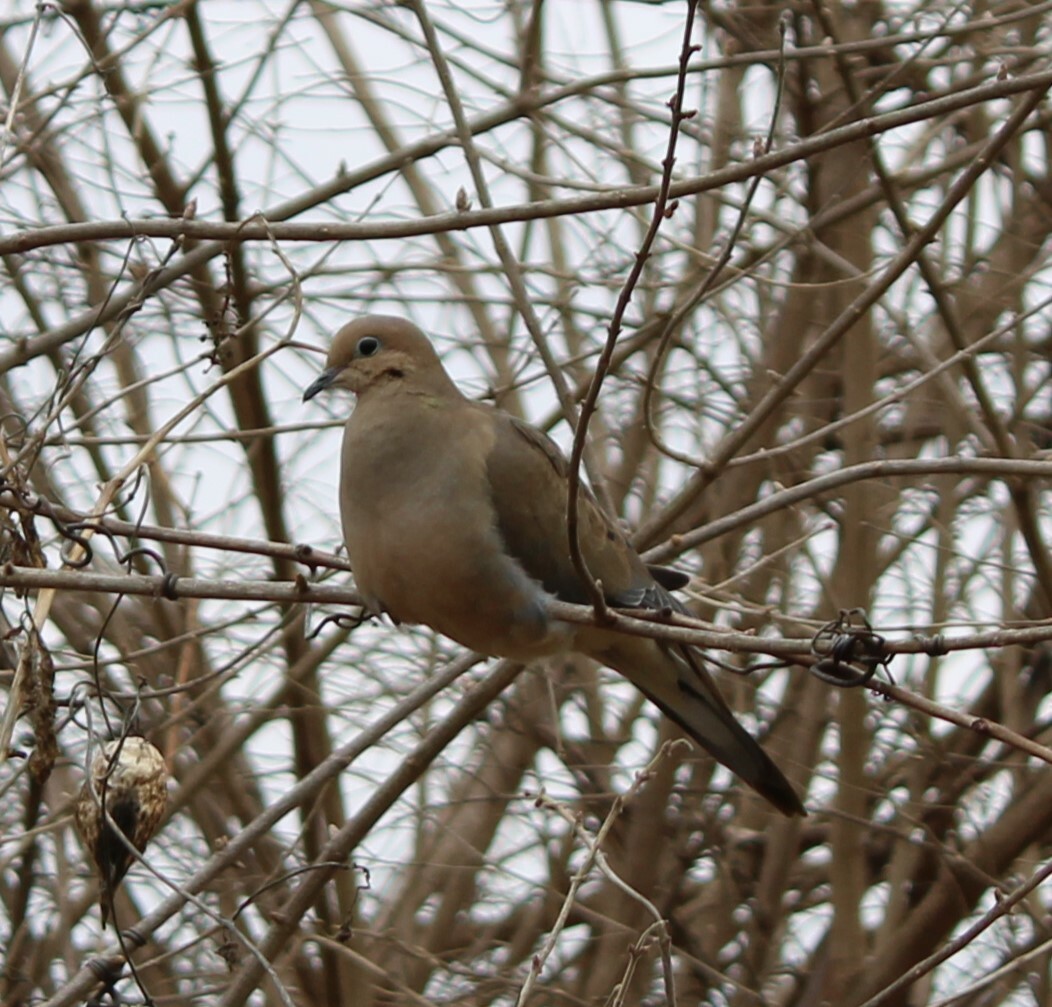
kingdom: Animalia
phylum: Chordata
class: Aves
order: Columbiformes
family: Columbidae
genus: Zenaida
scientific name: Zenaida macroura
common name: Mourning dove
